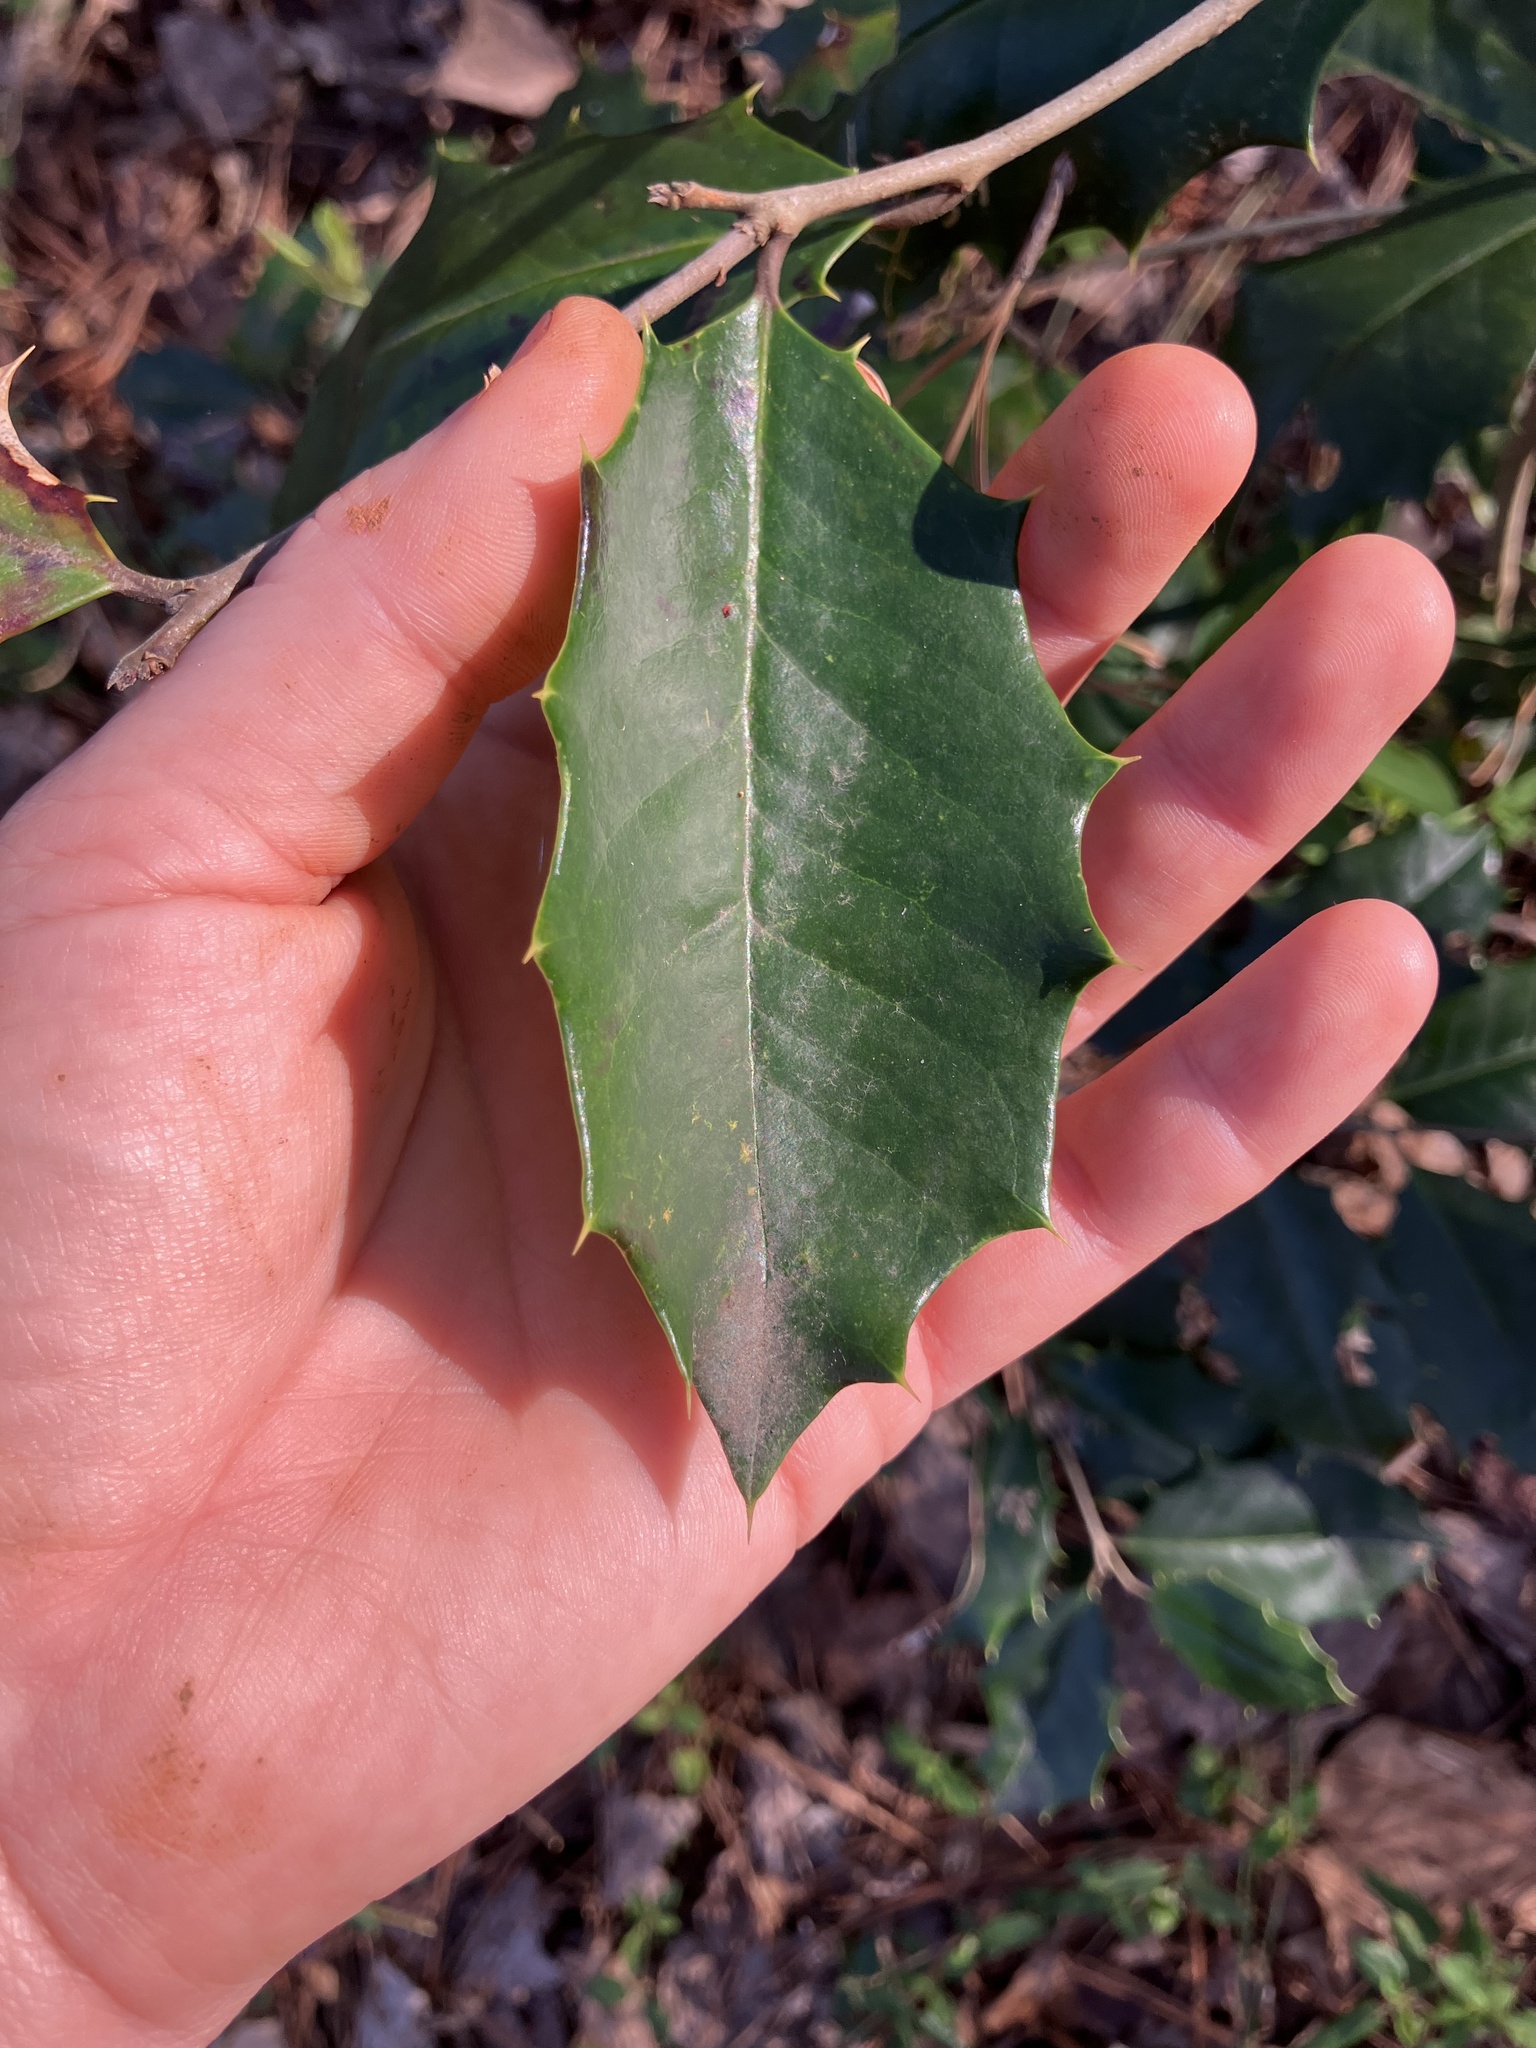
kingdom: Plantae
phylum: Tracheophyta
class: Magnoliopsida
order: Aquifoliales
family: Aquifoliaceae
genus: Ilex
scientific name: Ilex opaca
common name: American holly
